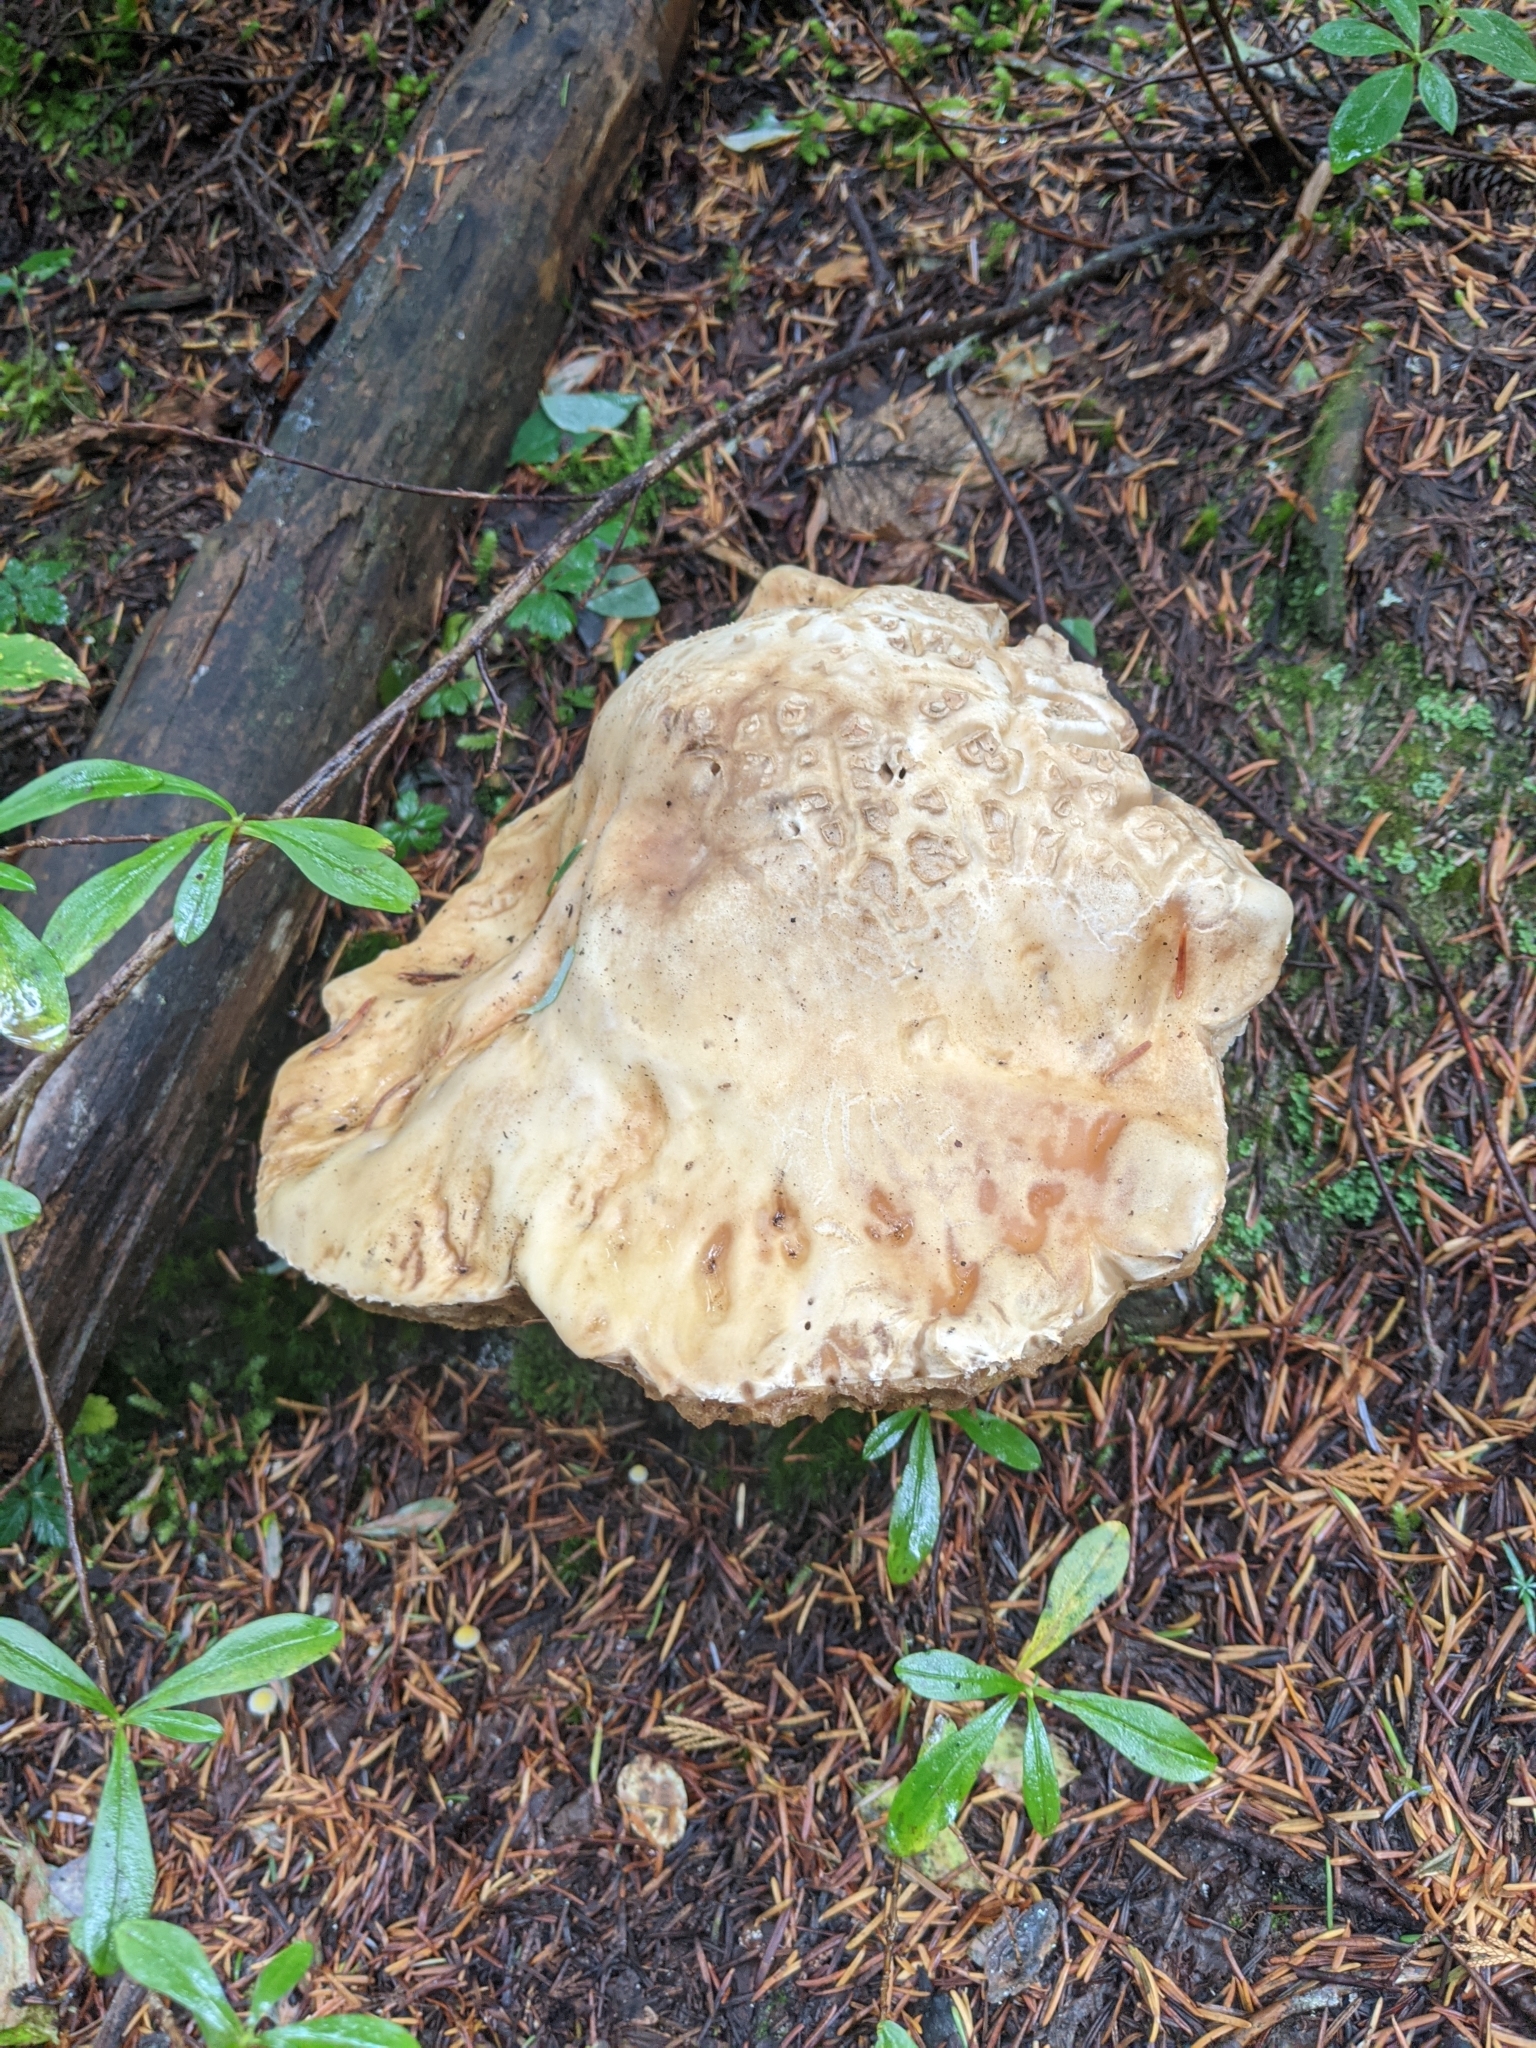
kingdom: Fungi
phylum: Basidiomycota
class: Agaricomycetes
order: Boletales
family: Boletaceae
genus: Boletus
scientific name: Boletus edulis
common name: Cep
